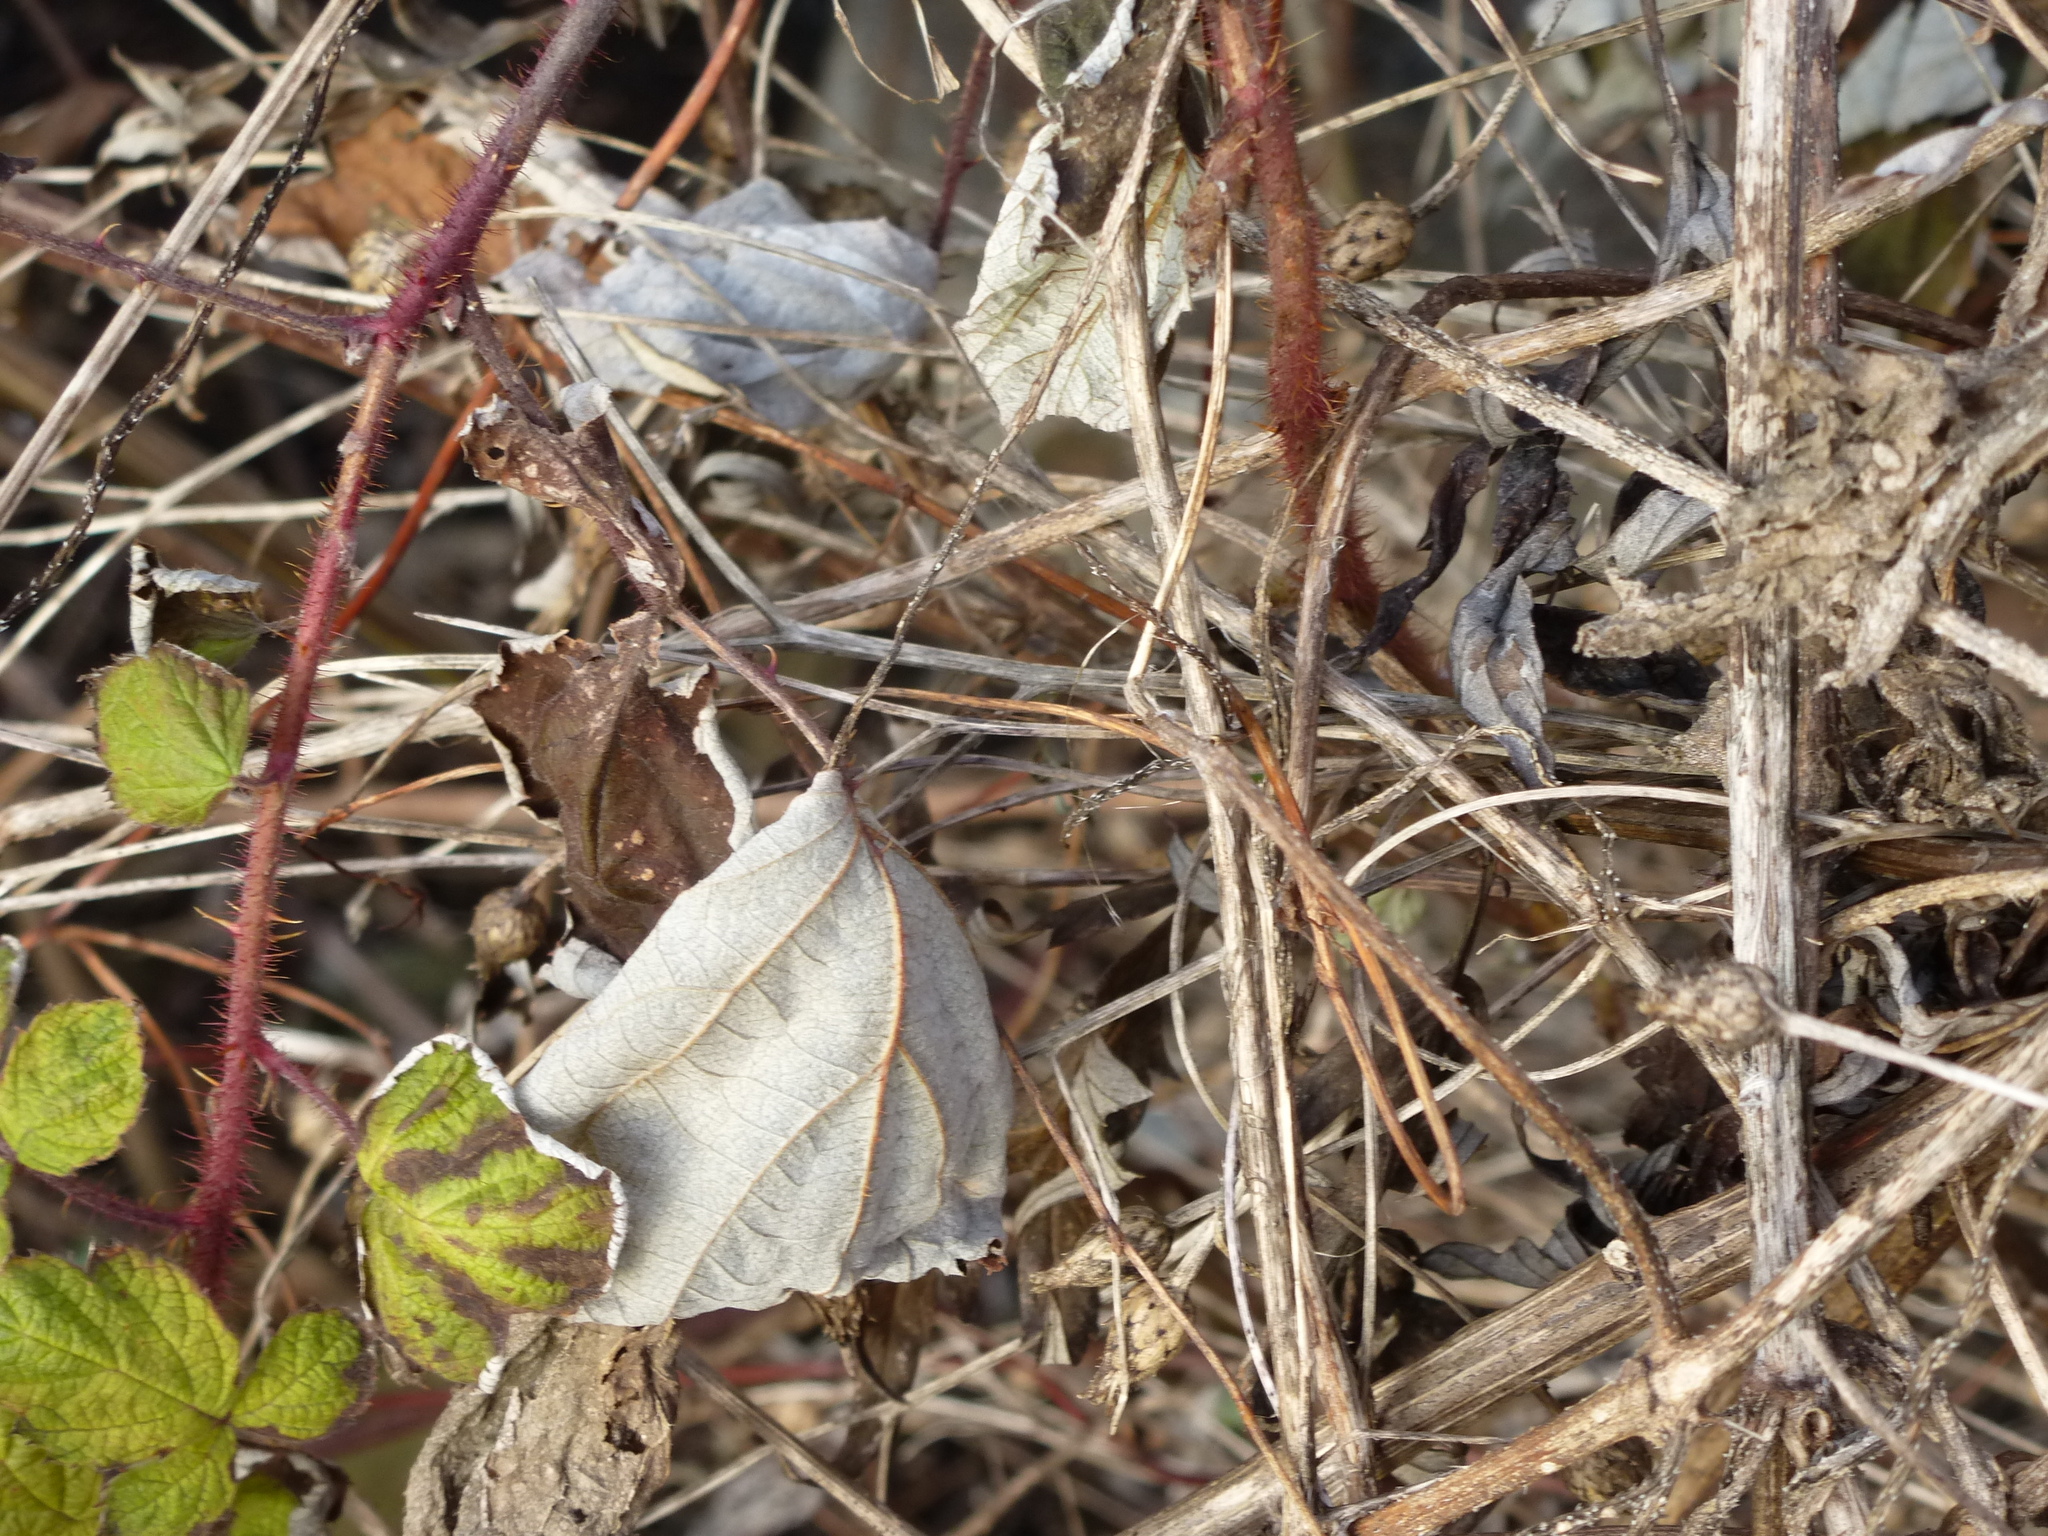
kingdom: Plantae
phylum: Tracheophyta
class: Magnoliopsida
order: Rosales
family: Rosaceae
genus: Rubus
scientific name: Rubus phoenicolasius
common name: Japanese wineberry
